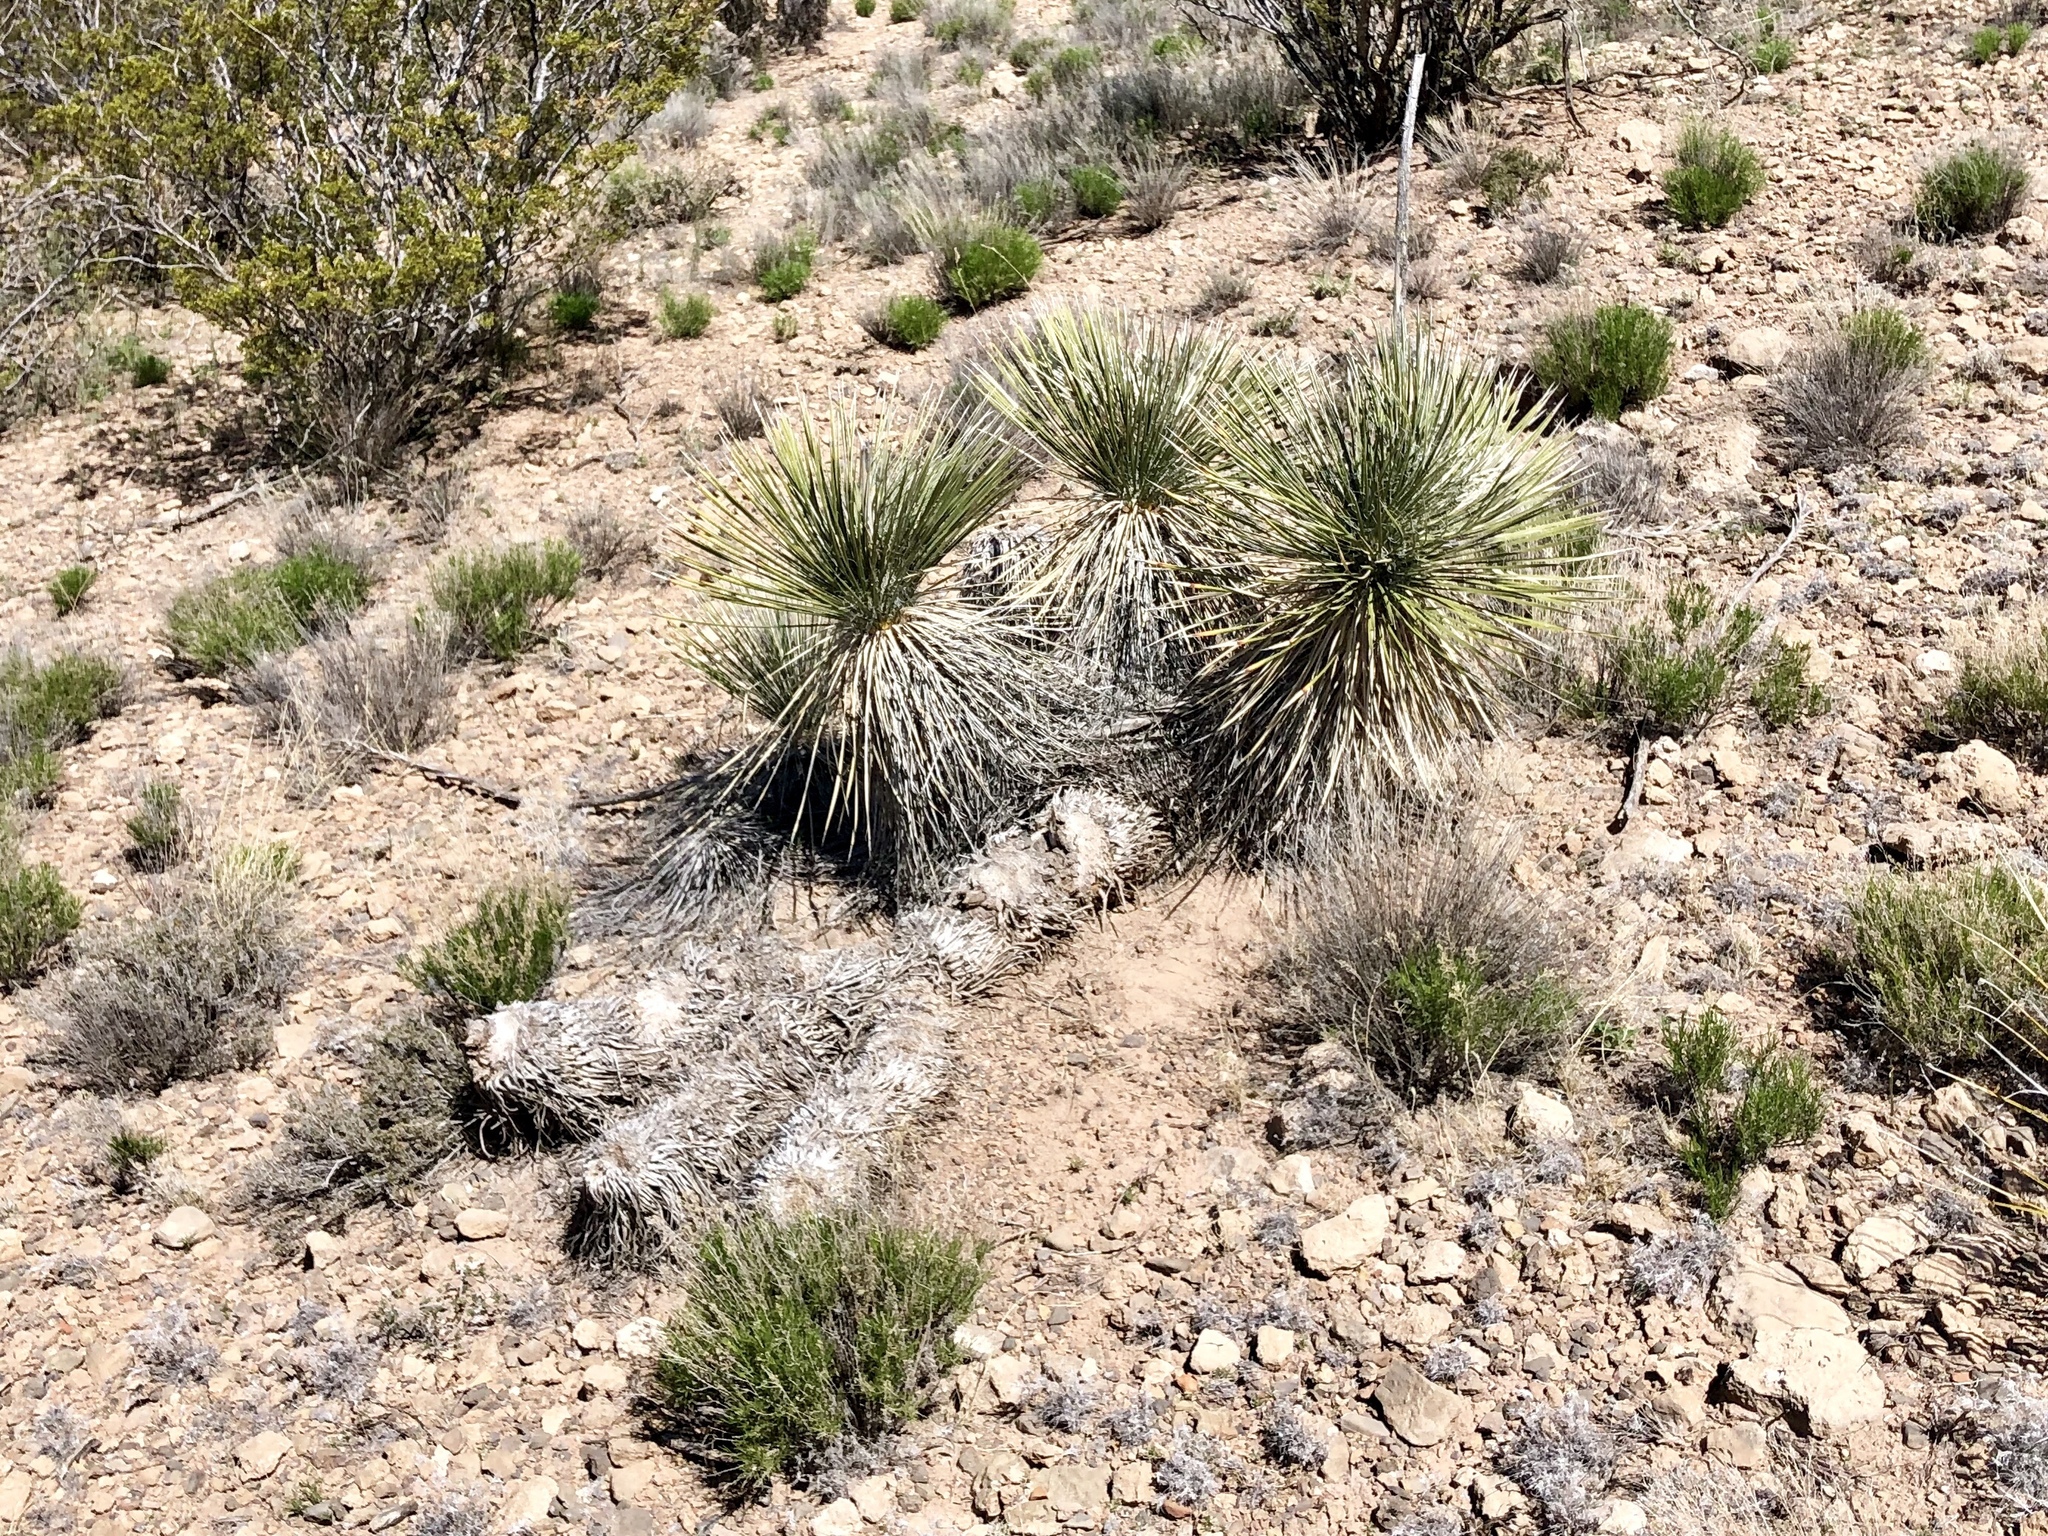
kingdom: Plantae
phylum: Tracheophyta
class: Liliopsida
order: Asparagales
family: Asparagaceae
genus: Yucca
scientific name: Yucca elata
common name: Palmella
